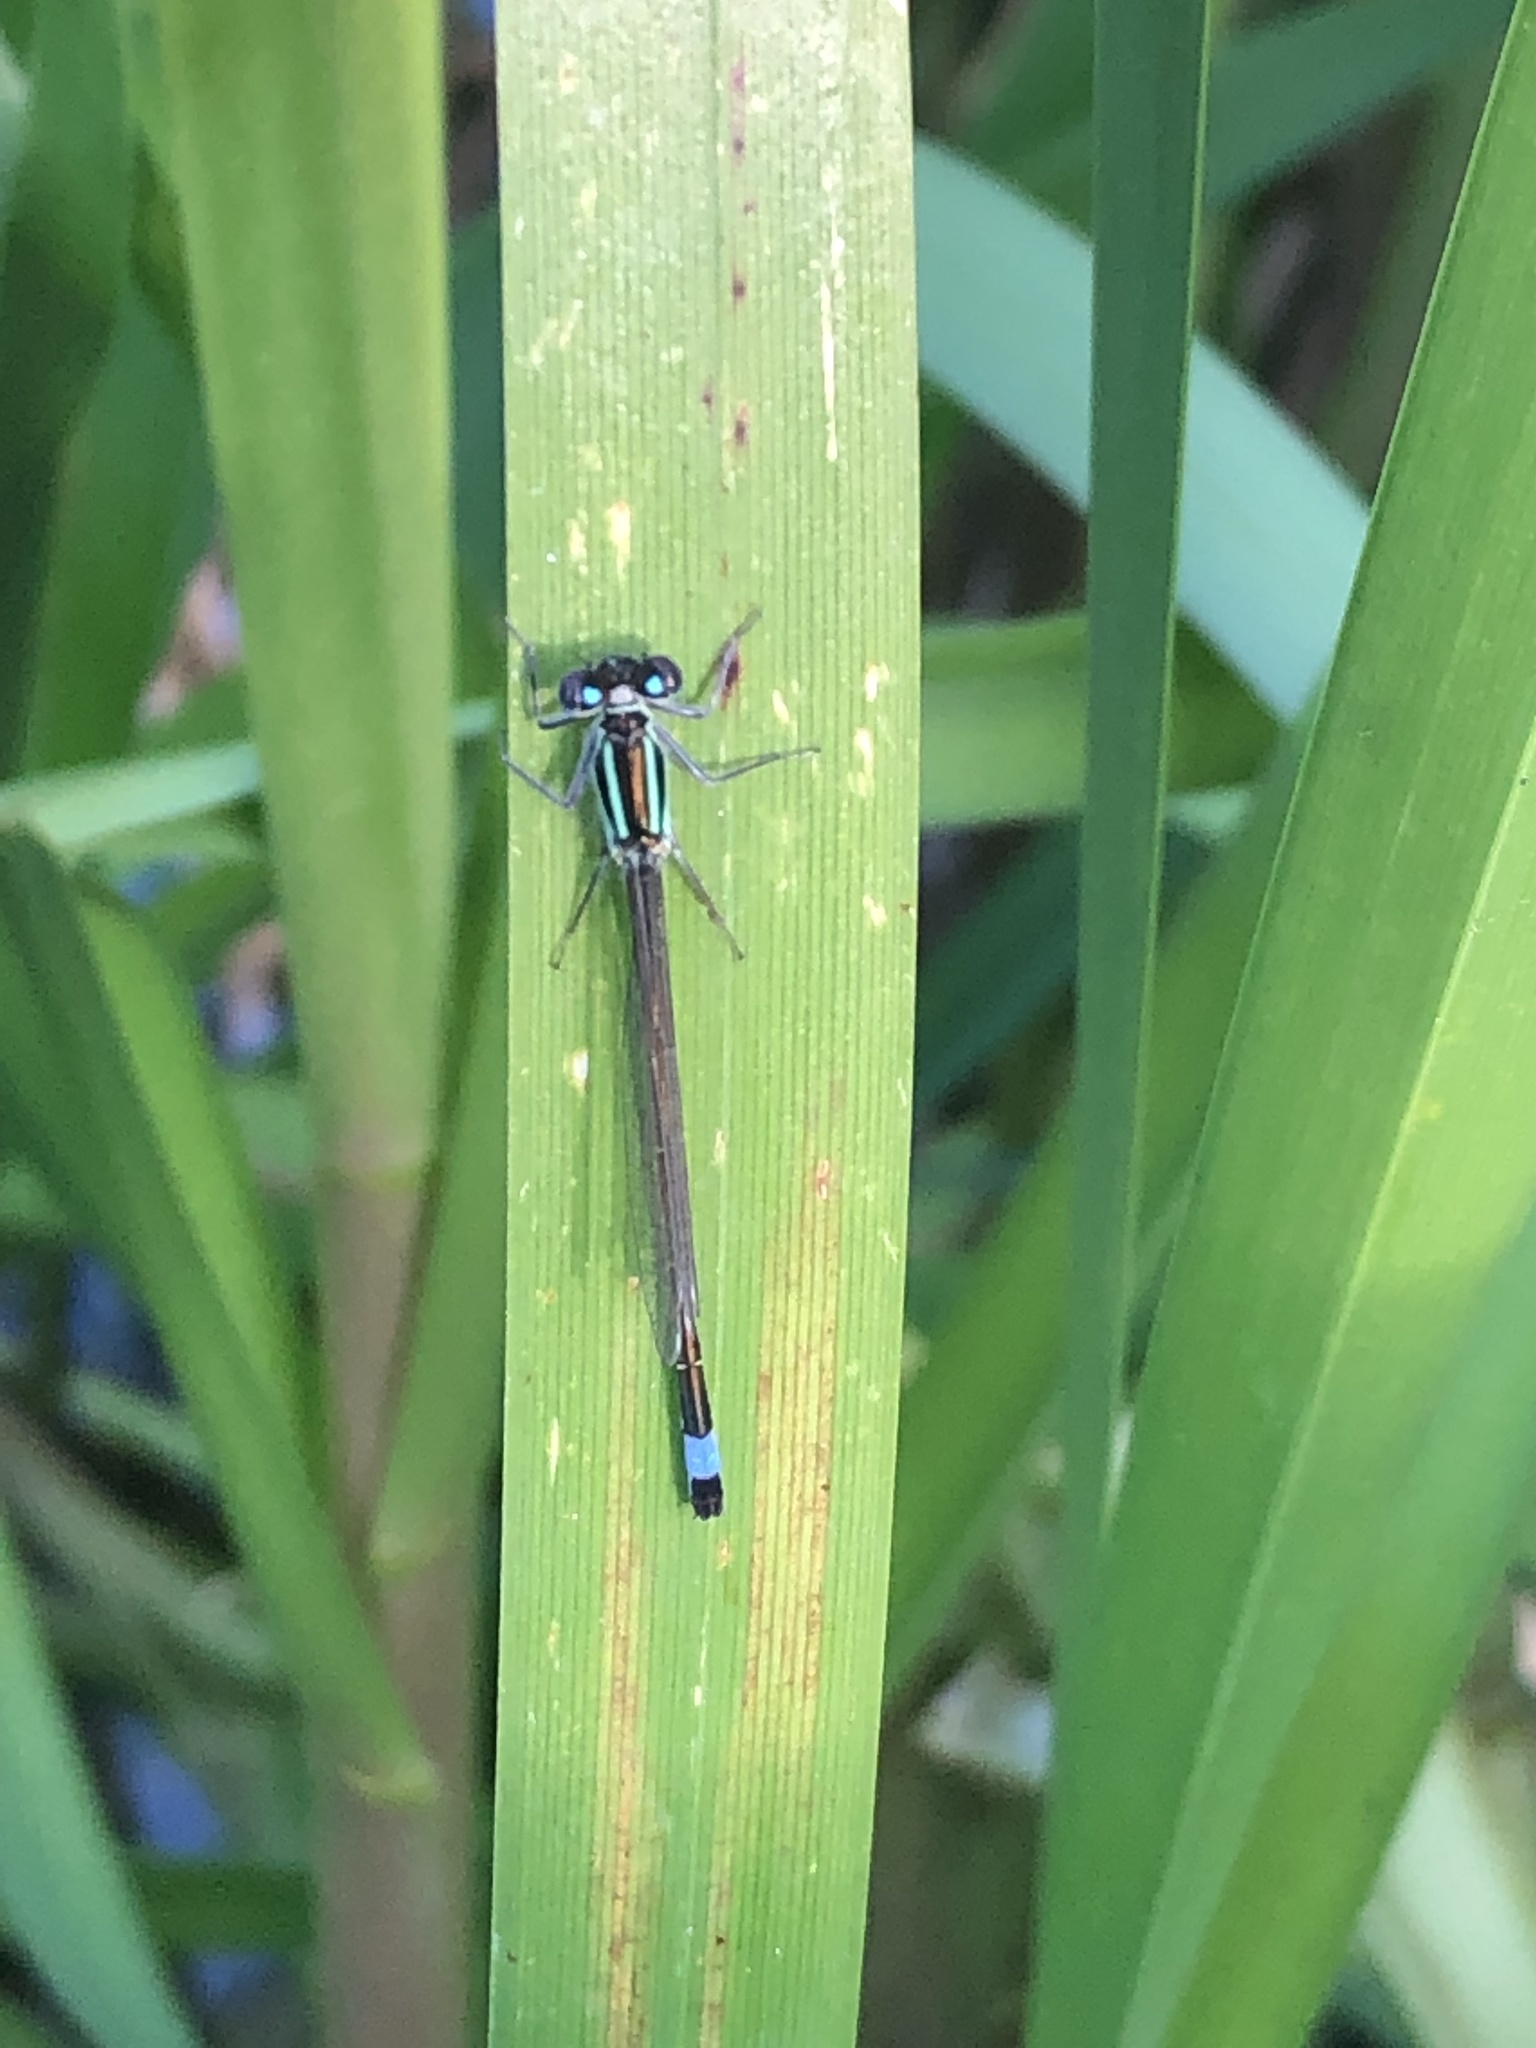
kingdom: Animalia
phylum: Arthropoda
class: Insecta
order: Odonata
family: Coenagrionidae
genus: Ischnura
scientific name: Ischnura elegans
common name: Blue-tailed damselfly
